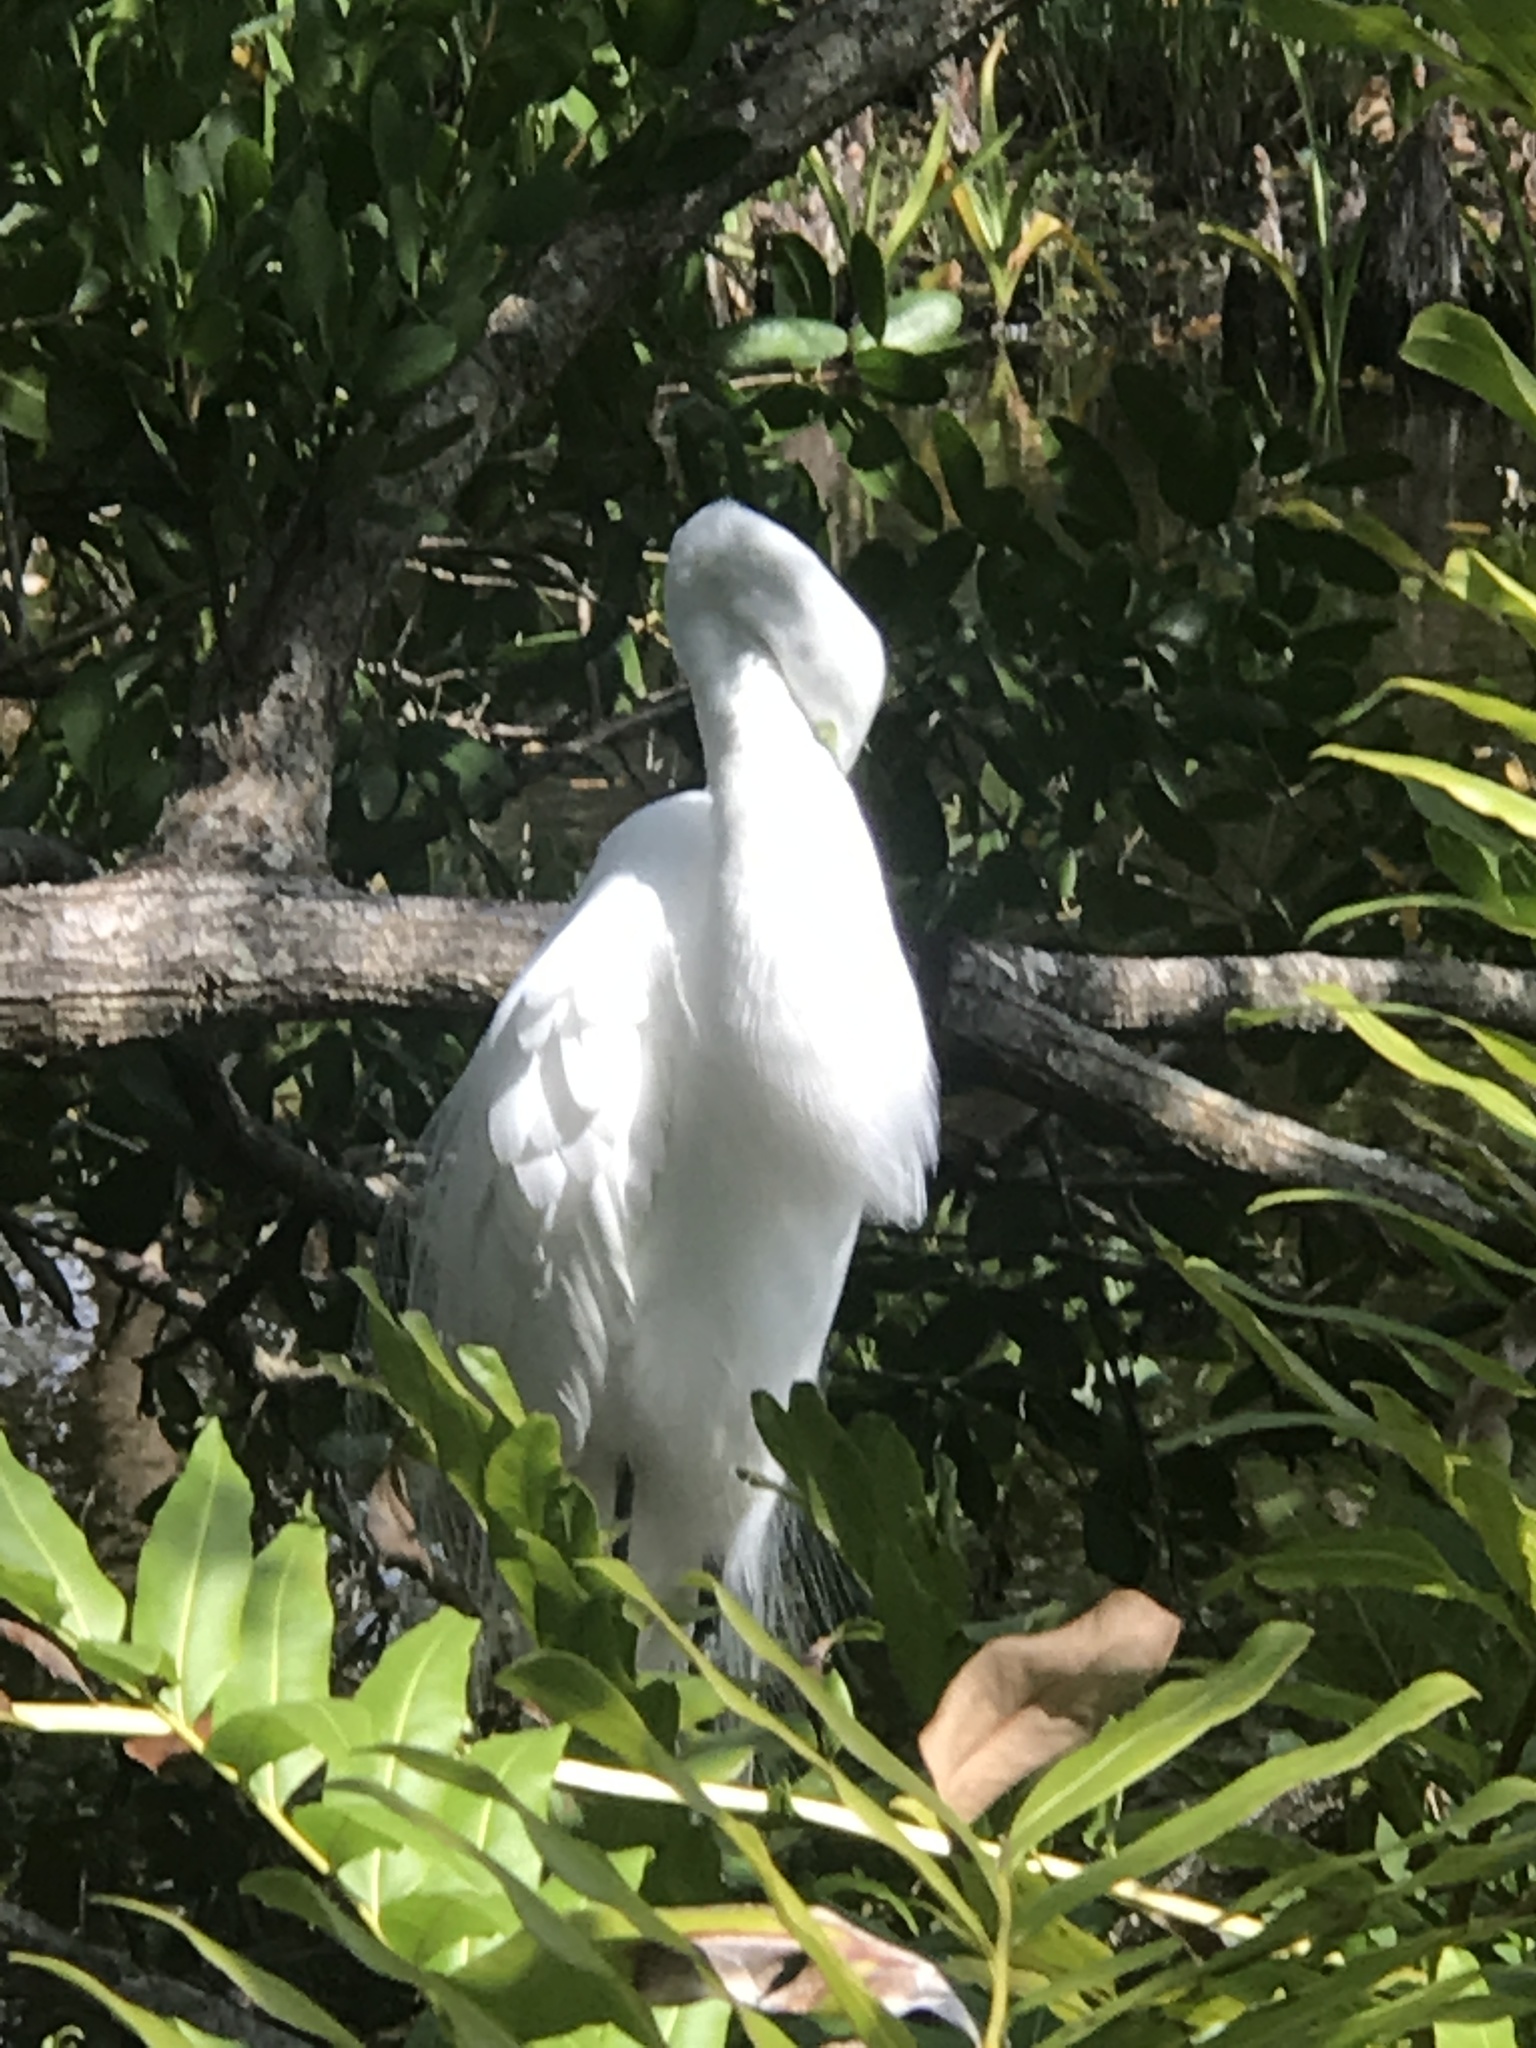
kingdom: Animalia
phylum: Chordata
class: Aves
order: Pelecaniformes
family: Ardeidae
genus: Ardea
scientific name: Ardea alba
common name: Great egret
